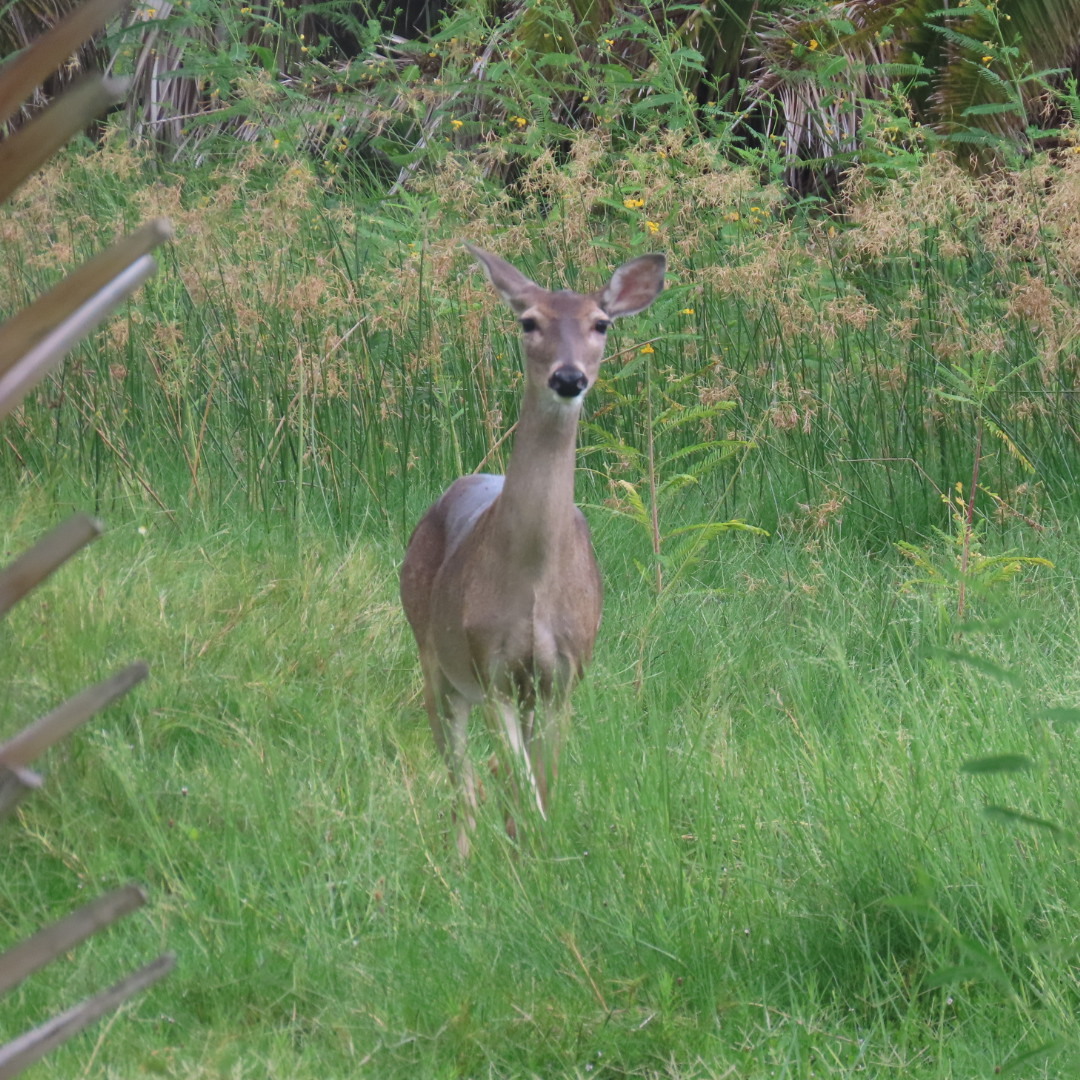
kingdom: Animalia
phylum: Chordata
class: Mammalia
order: Artiodactyla
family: Cervidae
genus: Odocoileus
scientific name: Odocoileus virginianus
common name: White-tailed deer
